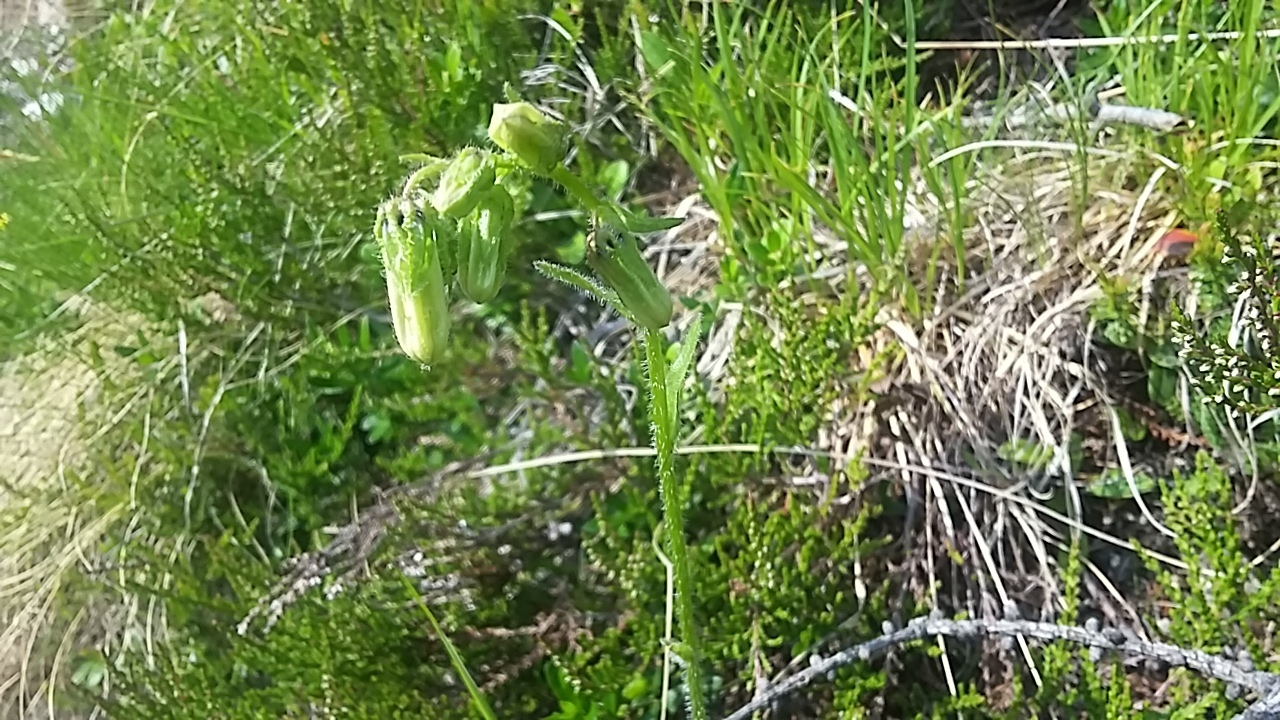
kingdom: Plantae
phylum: Tracheophyta
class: Magnoliopsida
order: Asterales
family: Campanulaceae
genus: Campanula
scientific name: Campanula barbata
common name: Bearded bellflower
